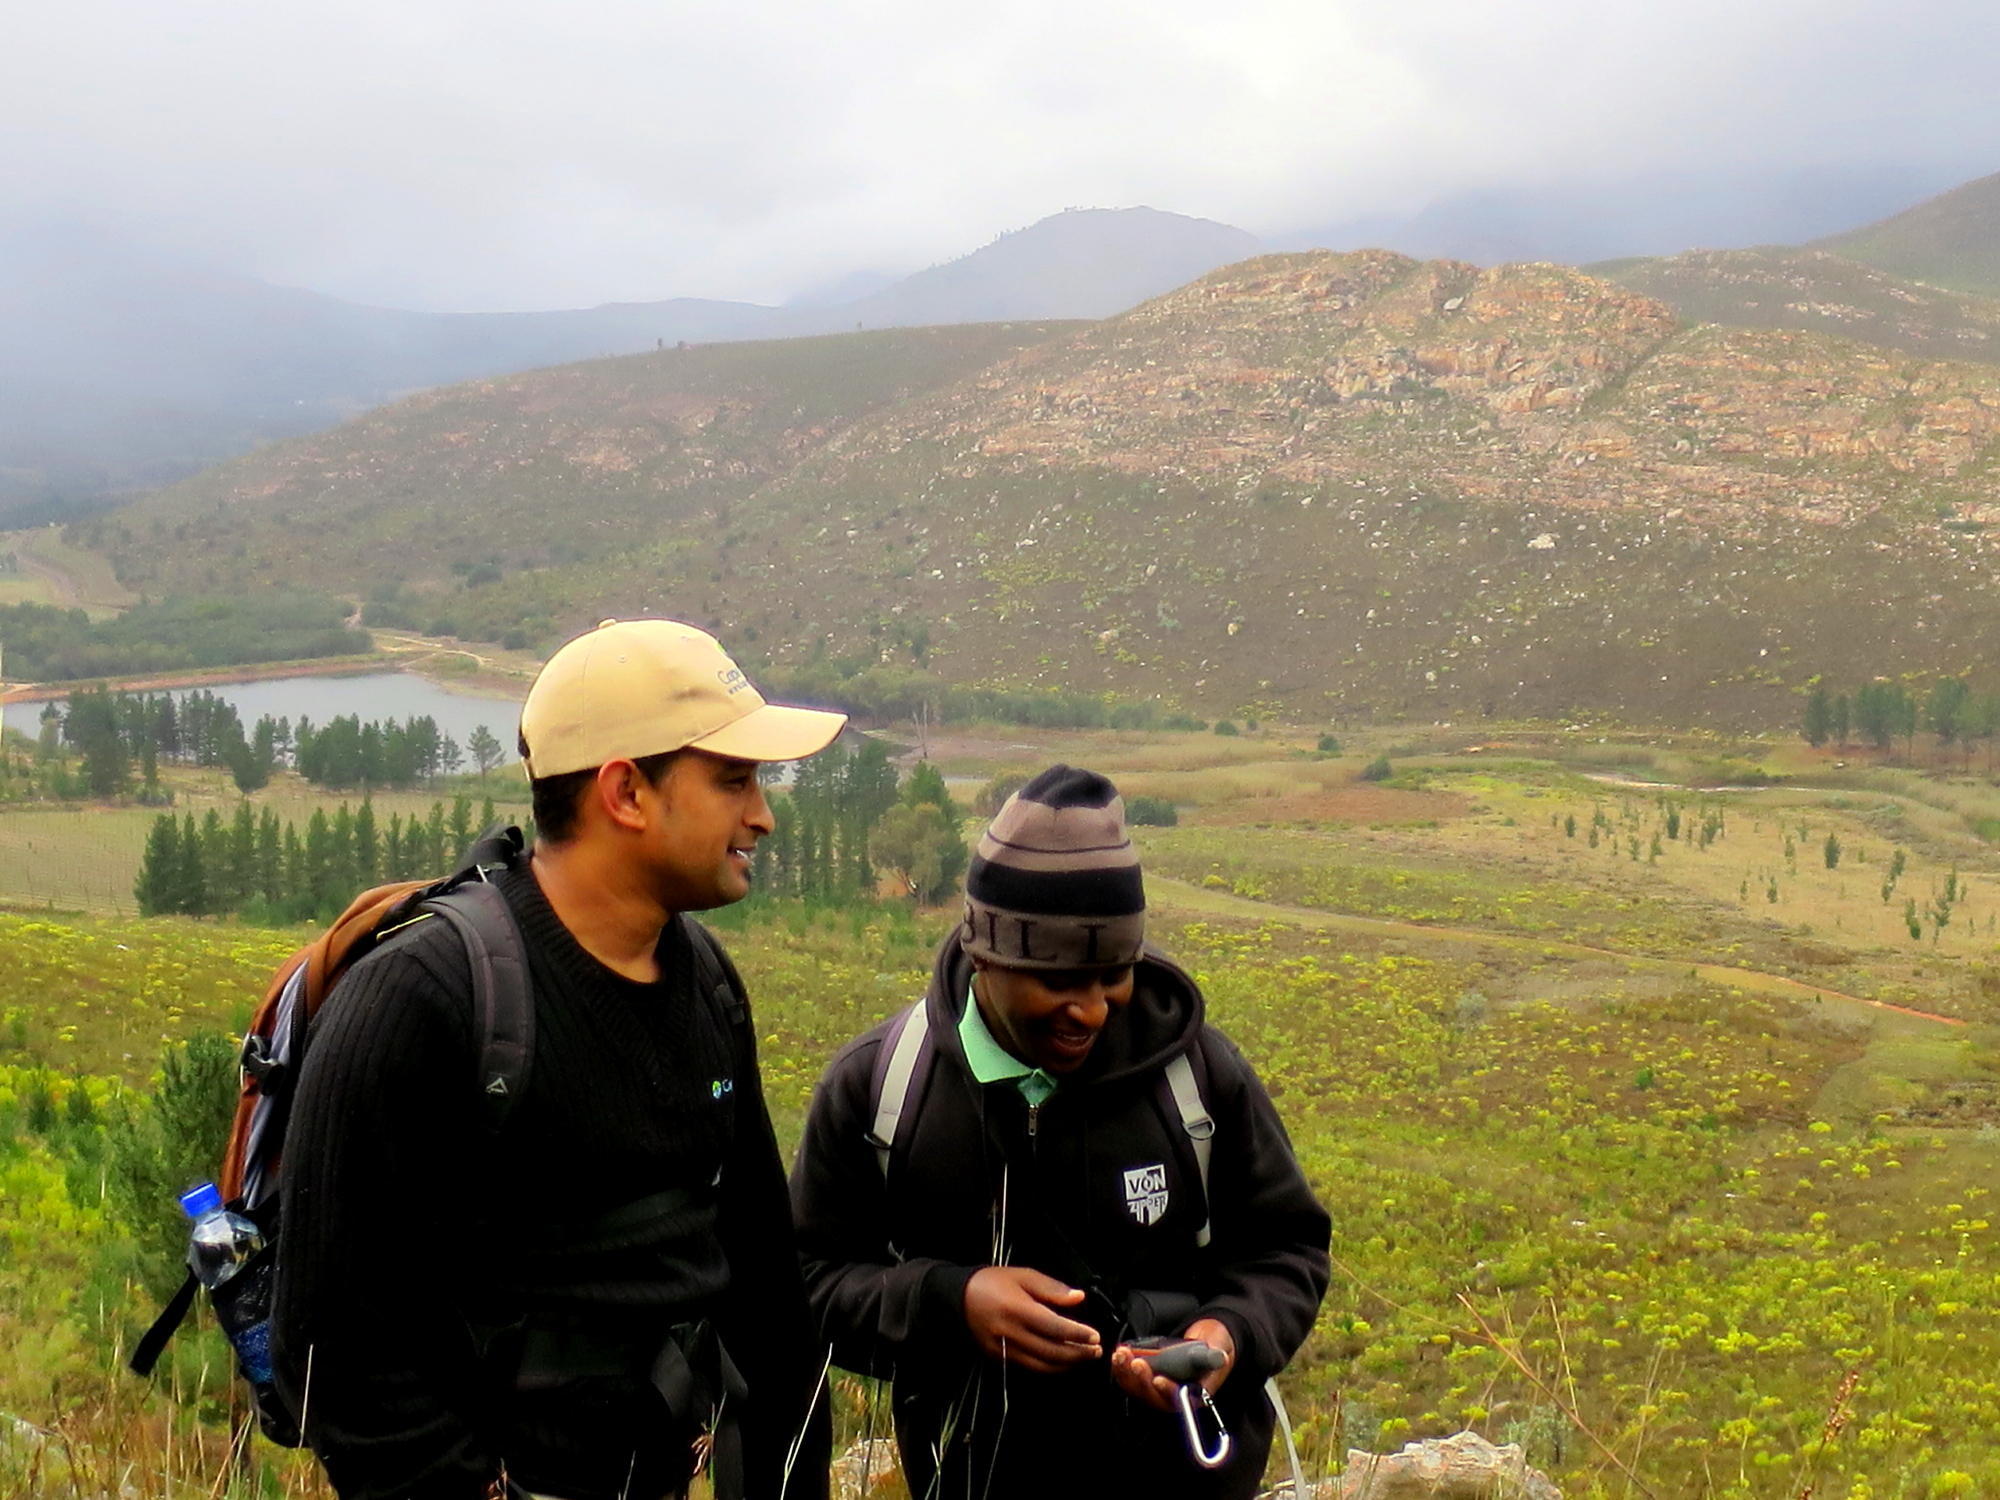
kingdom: Plantae
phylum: Tracheophyta
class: Pinopsida
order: Pinales
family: Pinaceae
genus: Pinus
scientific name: Pinus radiata
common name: Monterey pine
